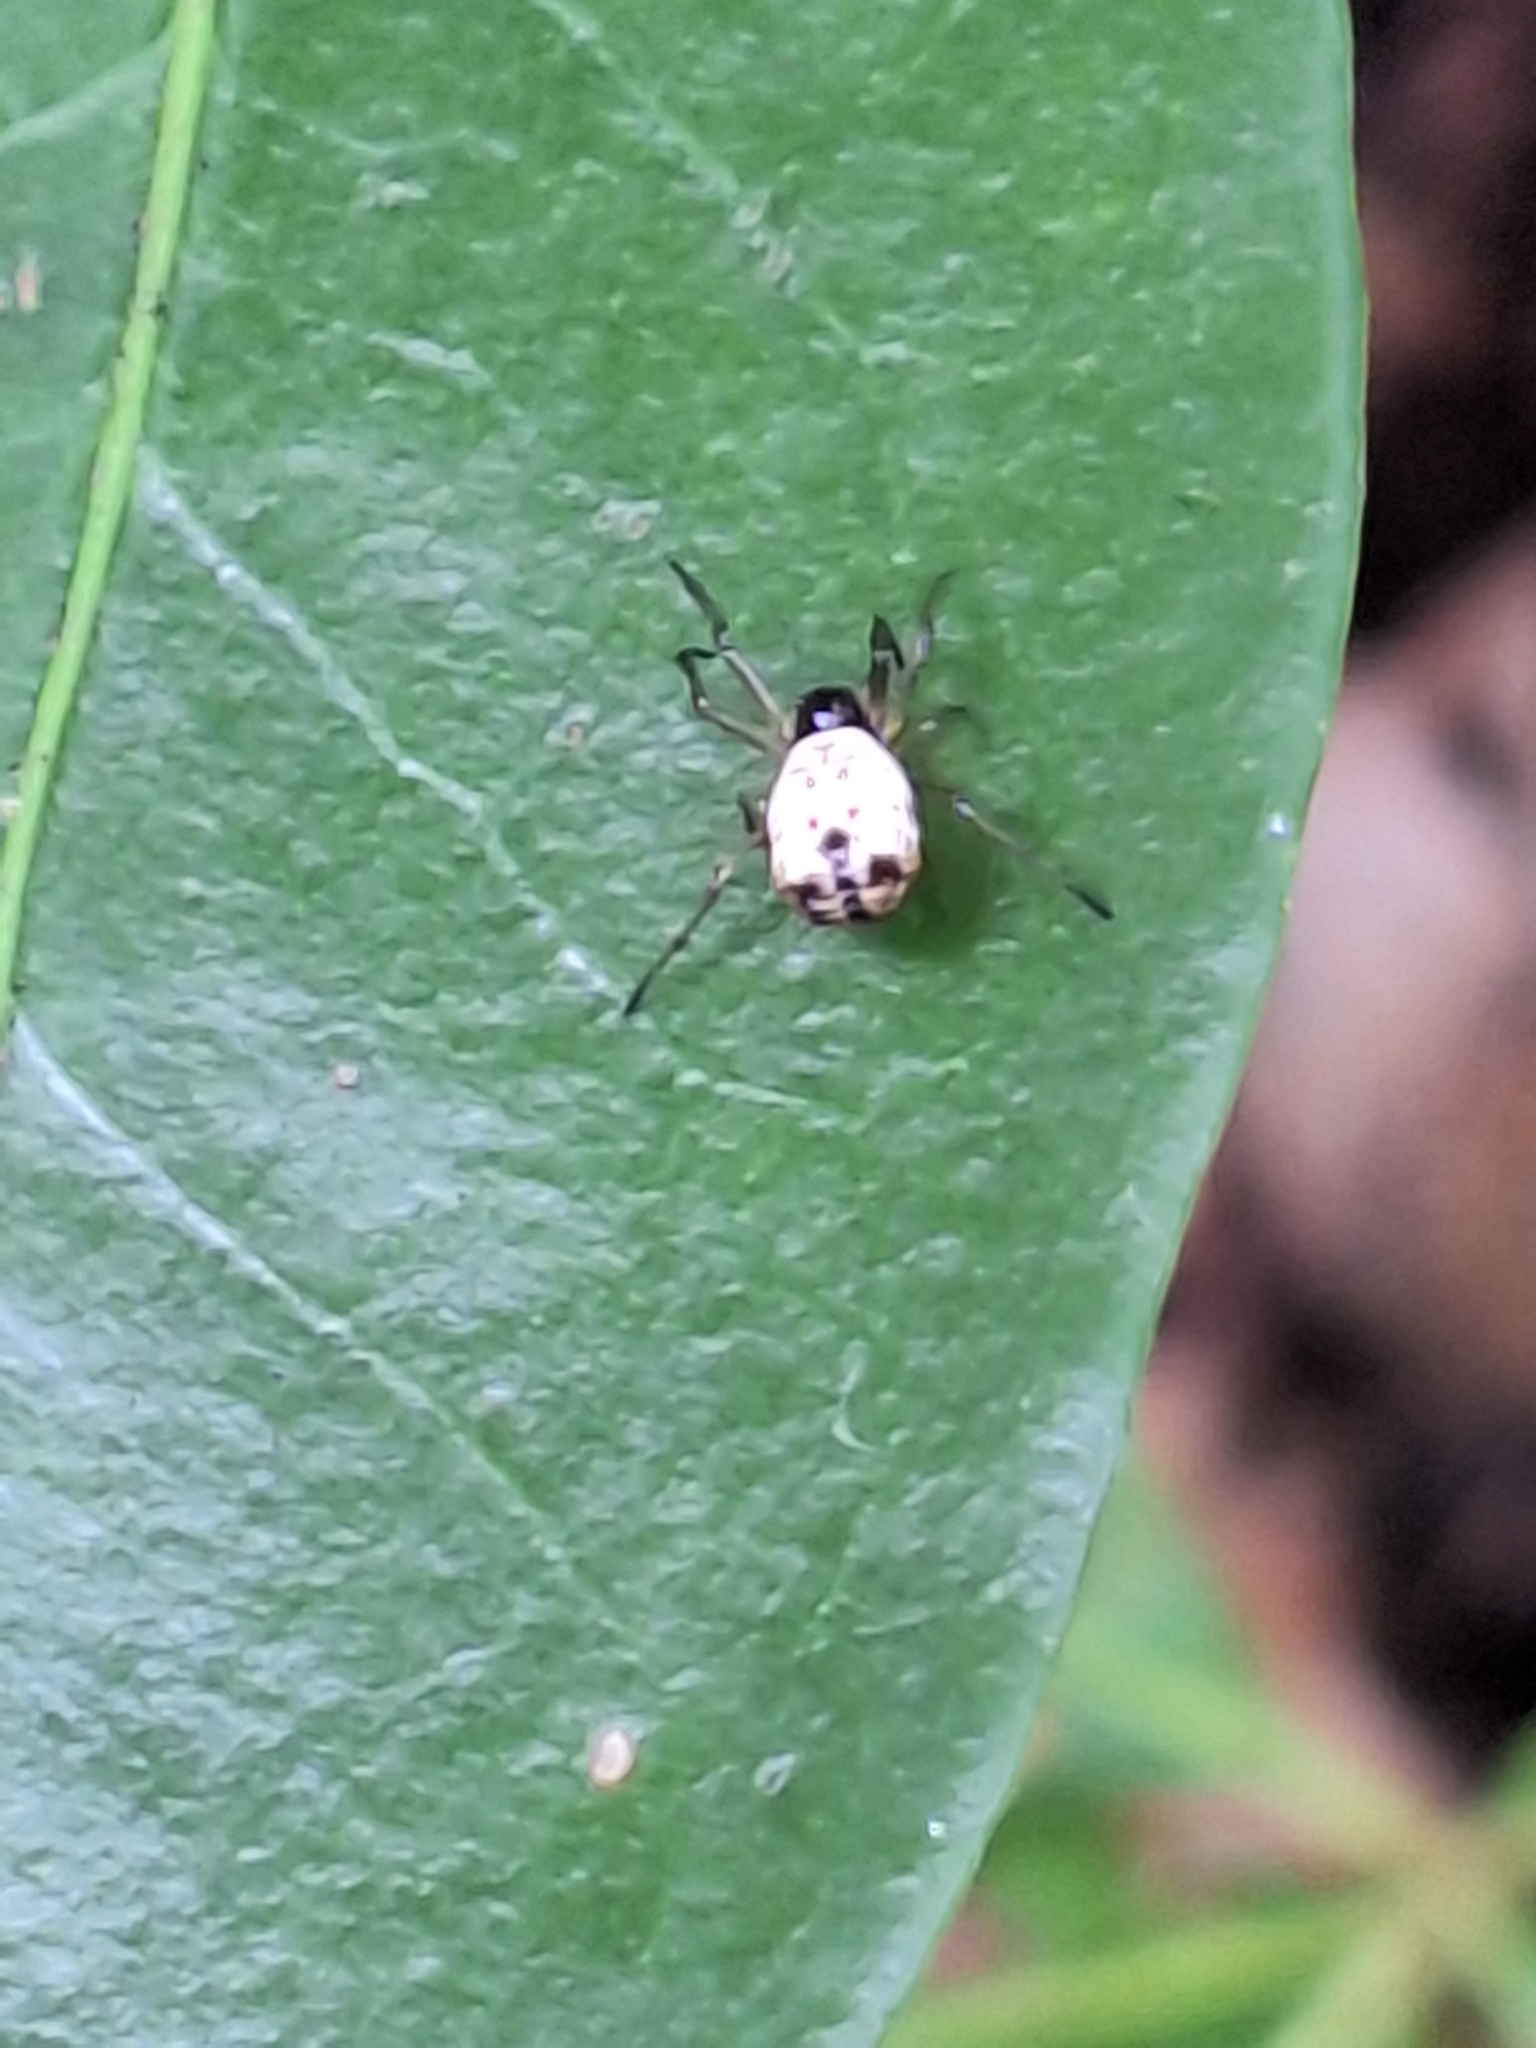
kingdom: Animalia
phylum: Arthropoda
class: Arachnida
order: Araneae
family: Araneidae
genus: Micrathena
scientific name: Micrathena mitrata
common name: Orb weavers
